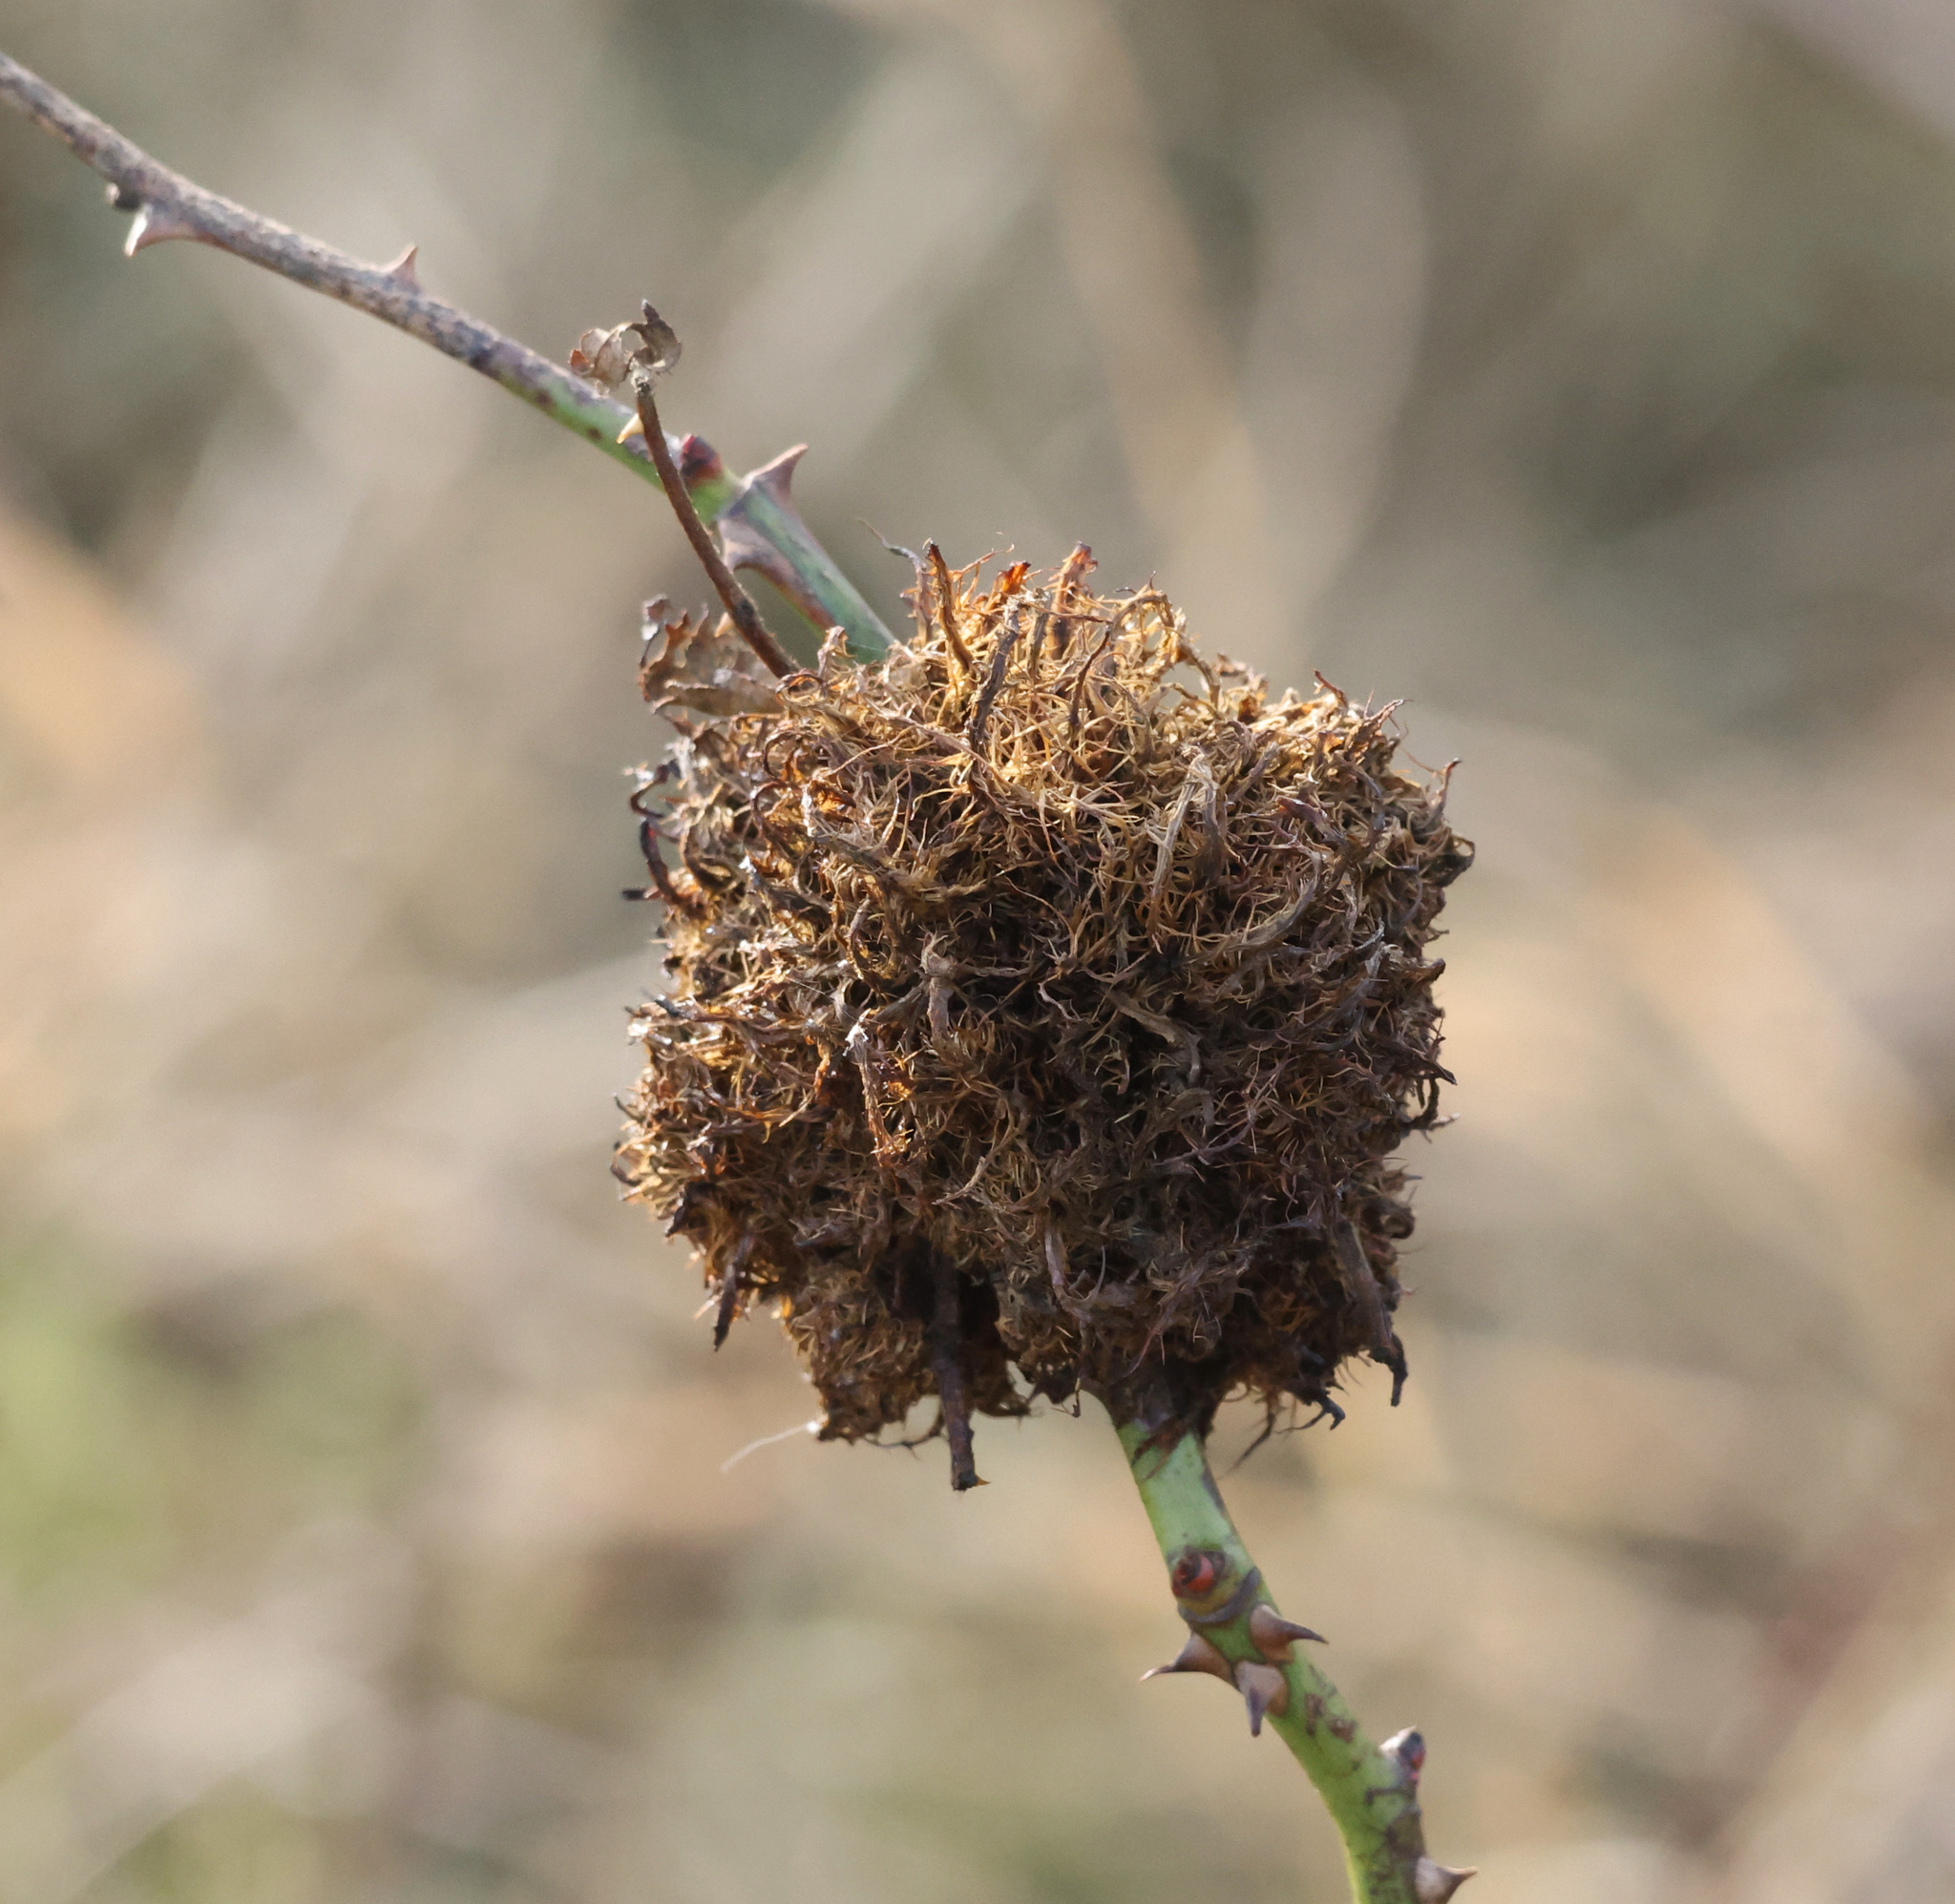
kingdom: Animalia
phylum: Arthropoda
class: Insecta
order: Hymenoptera
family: Cynipidae
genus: Diplolepis
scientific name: Diplolepis rosae
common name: Bedeguar gall
